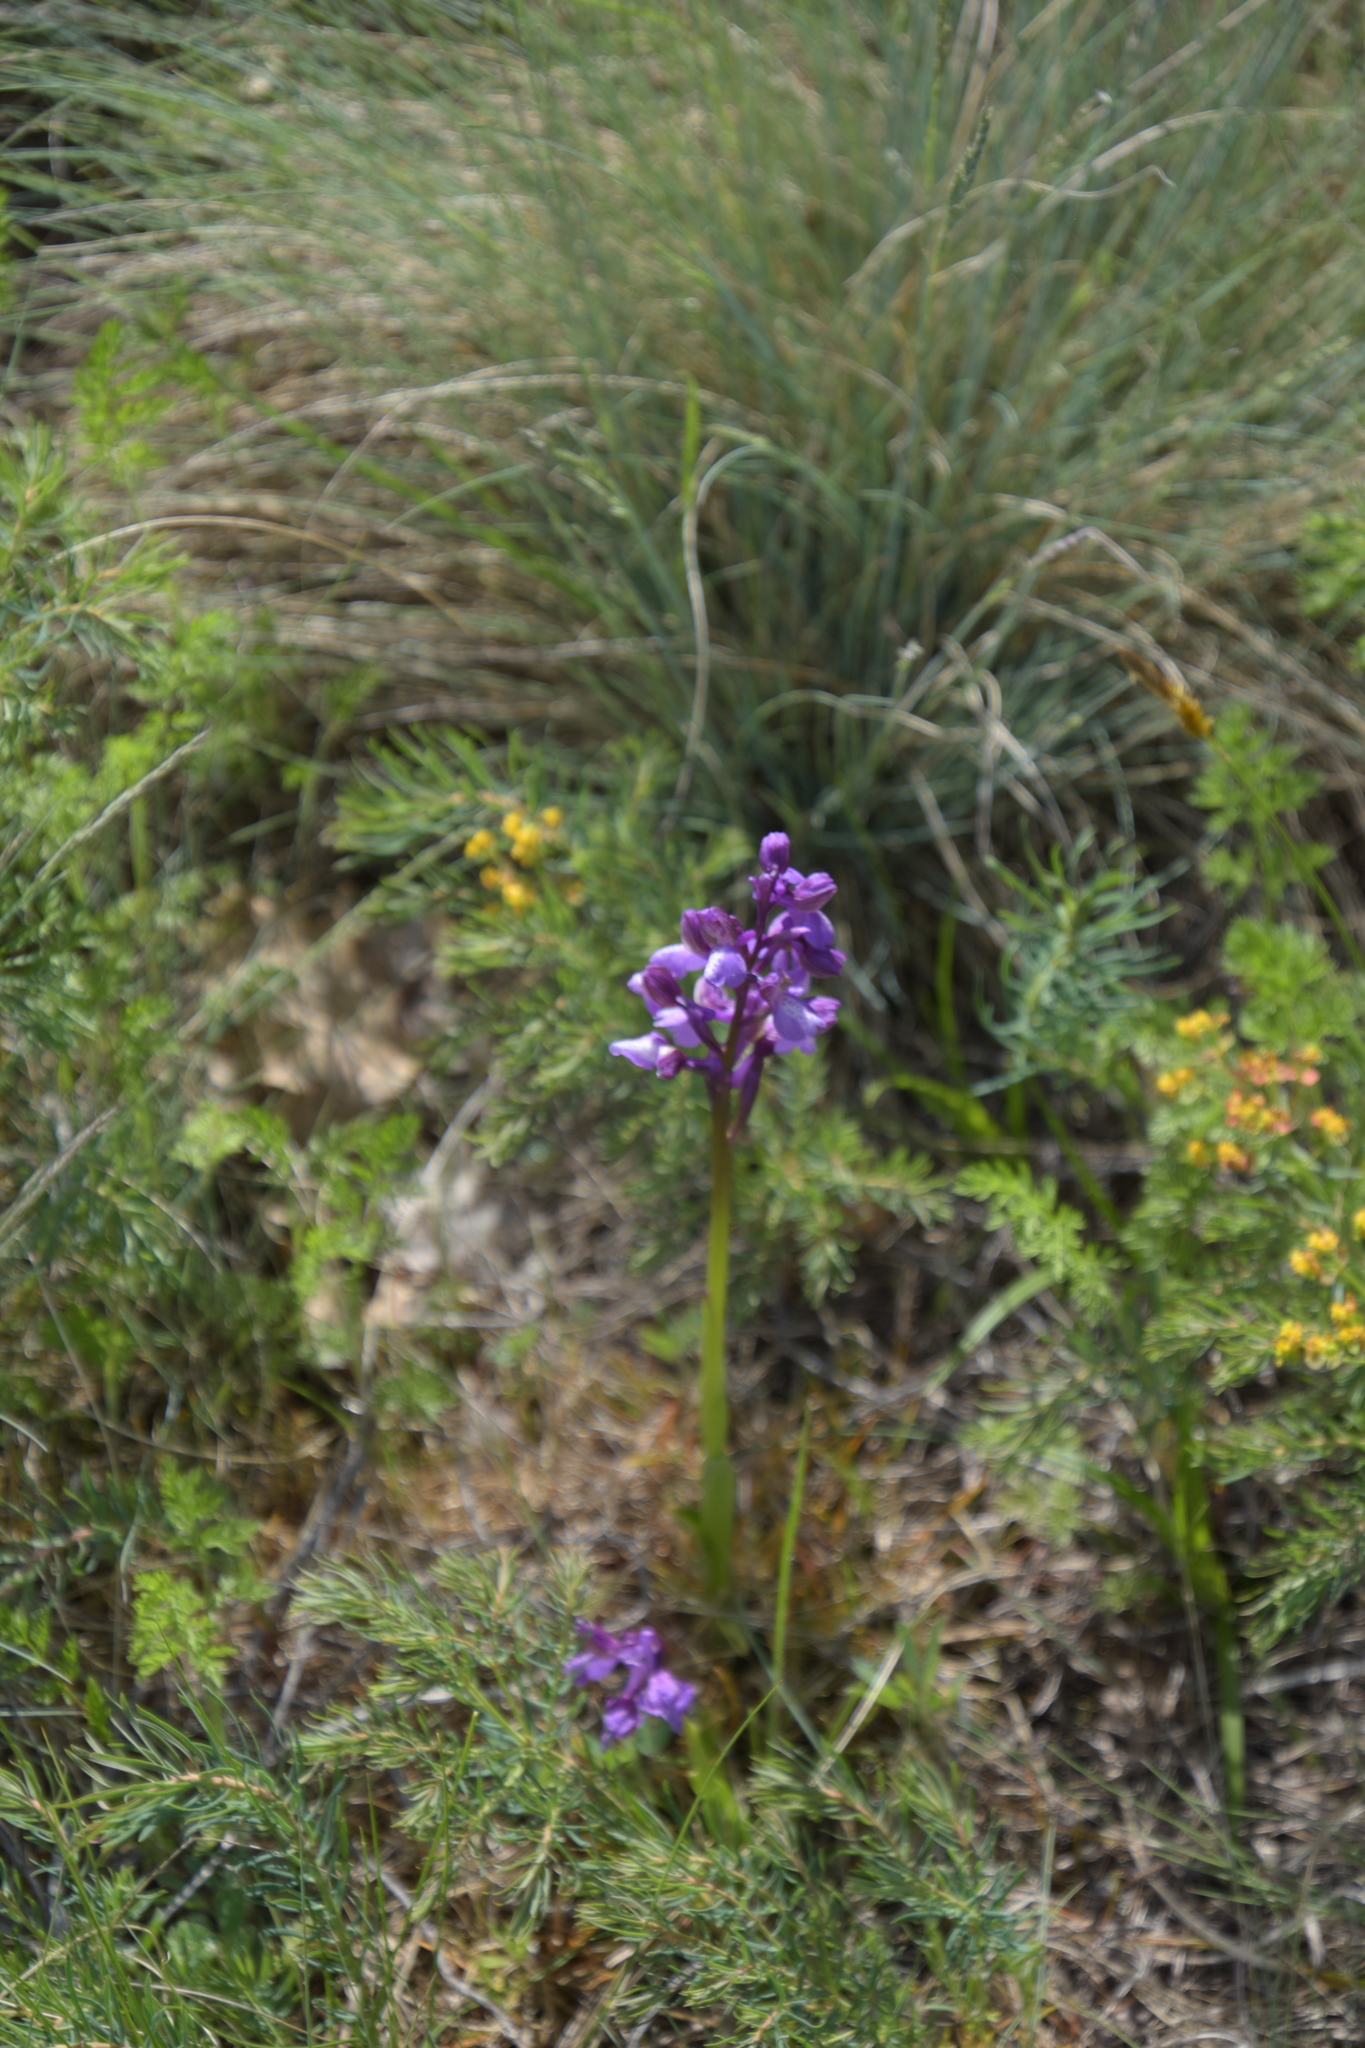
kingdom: Plantae
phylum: Tracheophyta
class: Liliopsida
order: Asparagales
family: Orchidaceae
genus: Anacamptis
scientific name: Anacamptis morio
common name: Green-winged orchid
